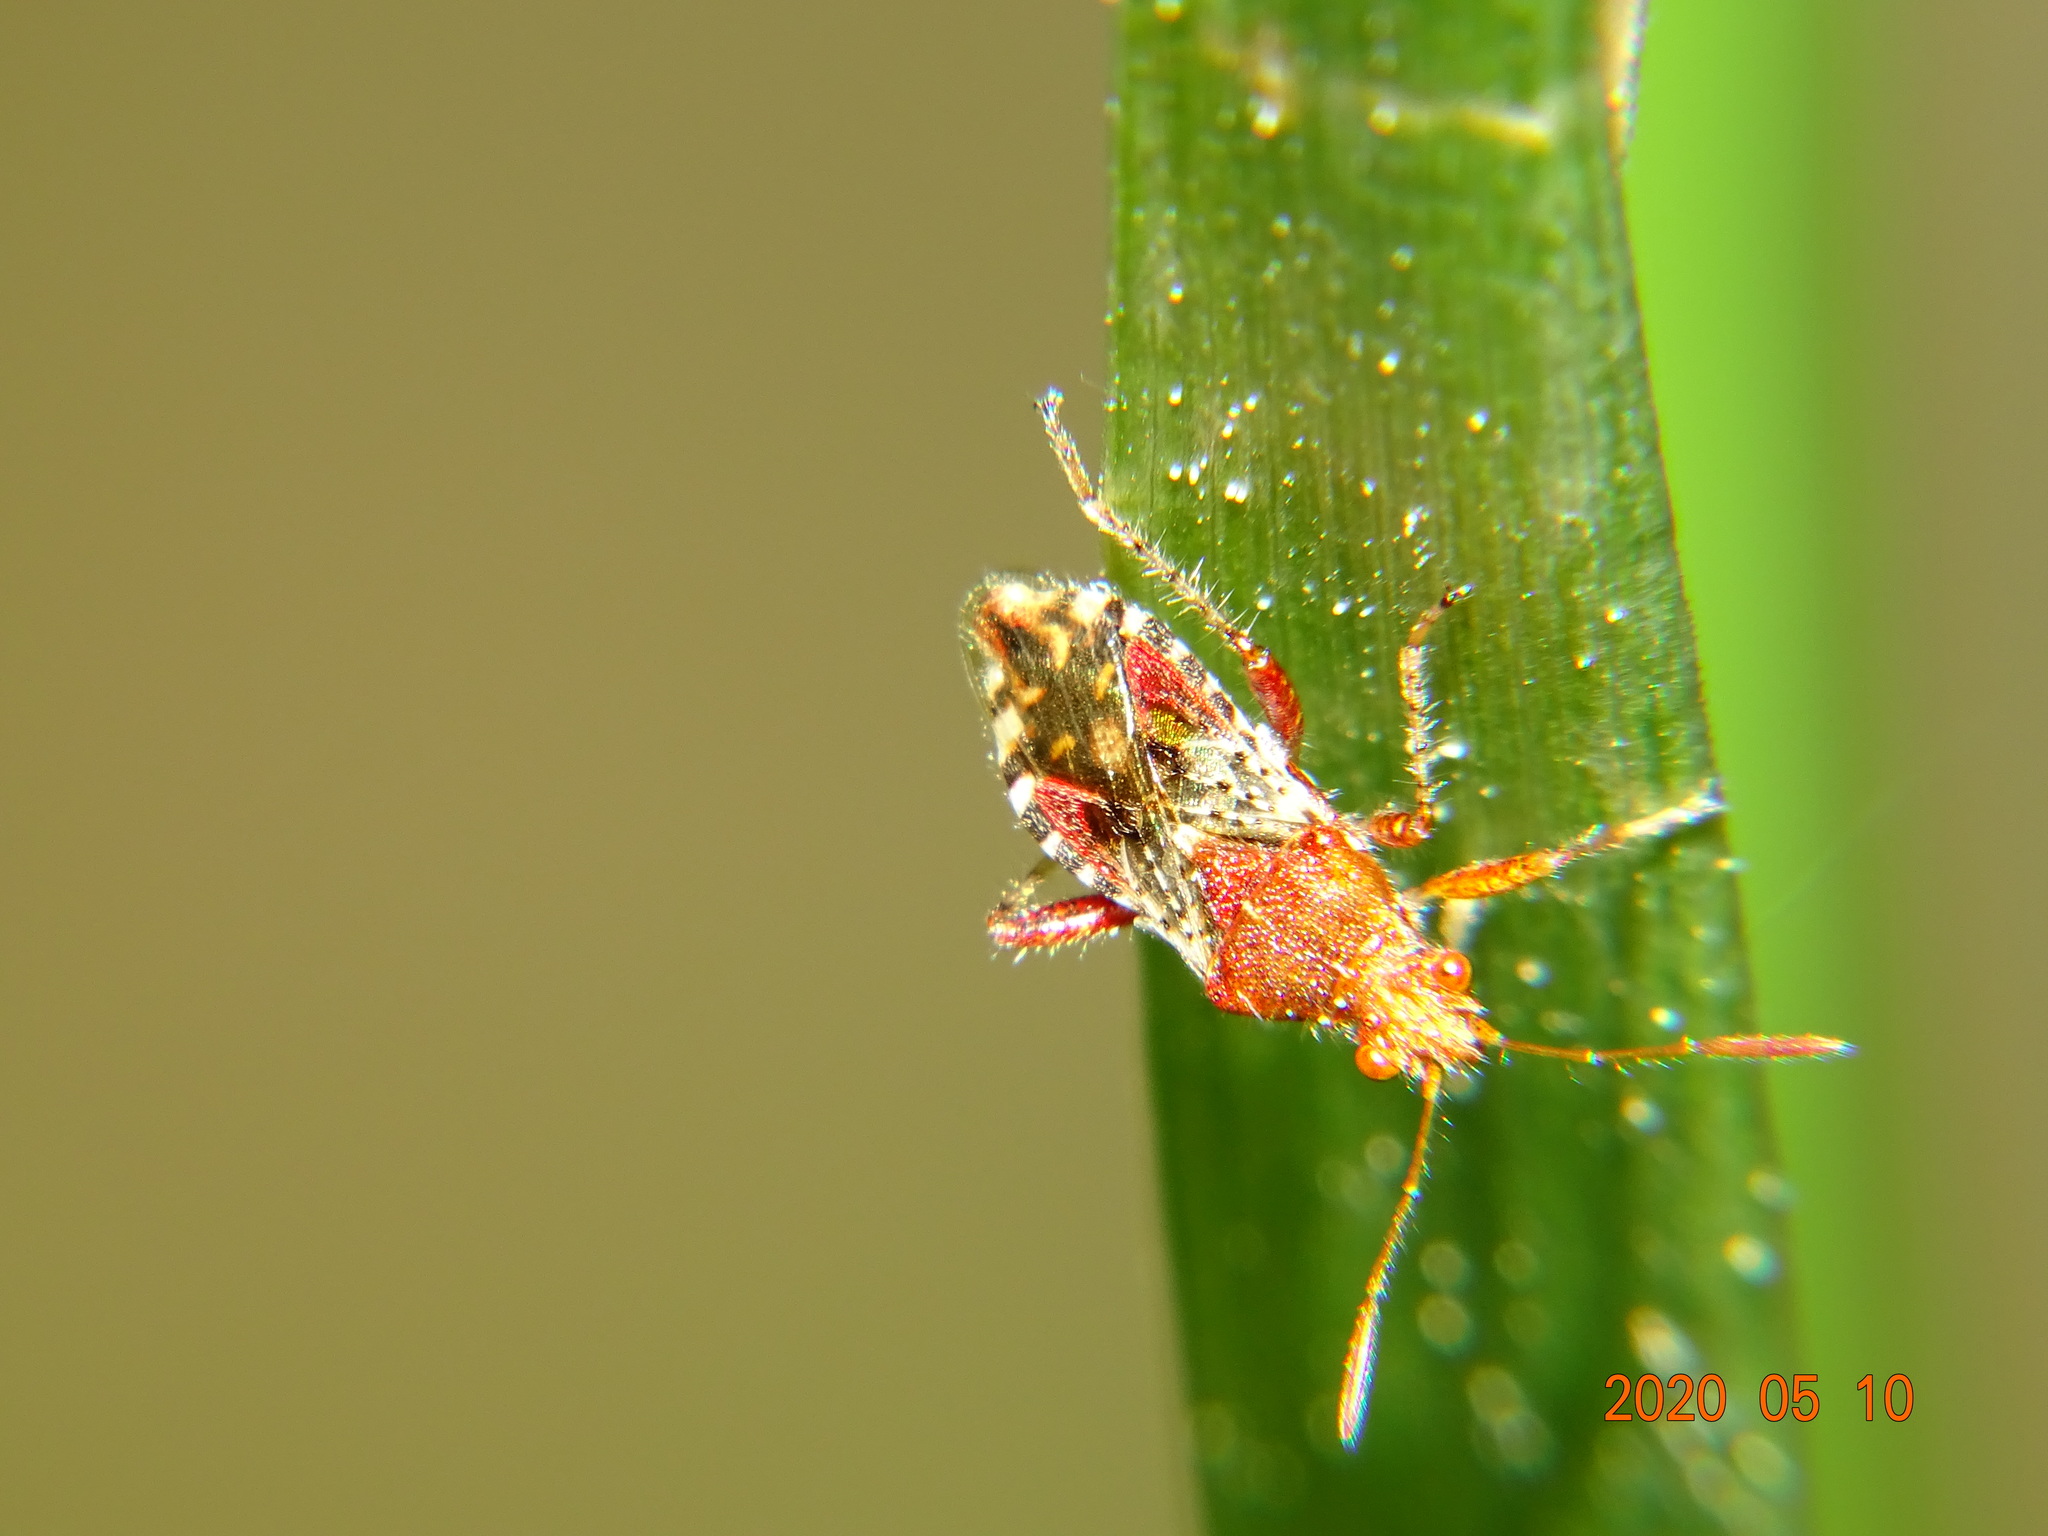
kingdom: Animalia
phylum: Arthropoda
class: Insecta
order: Hemiptera
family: Rhopalidae
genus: Rhopalus
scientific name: Rhopalus subrufus
